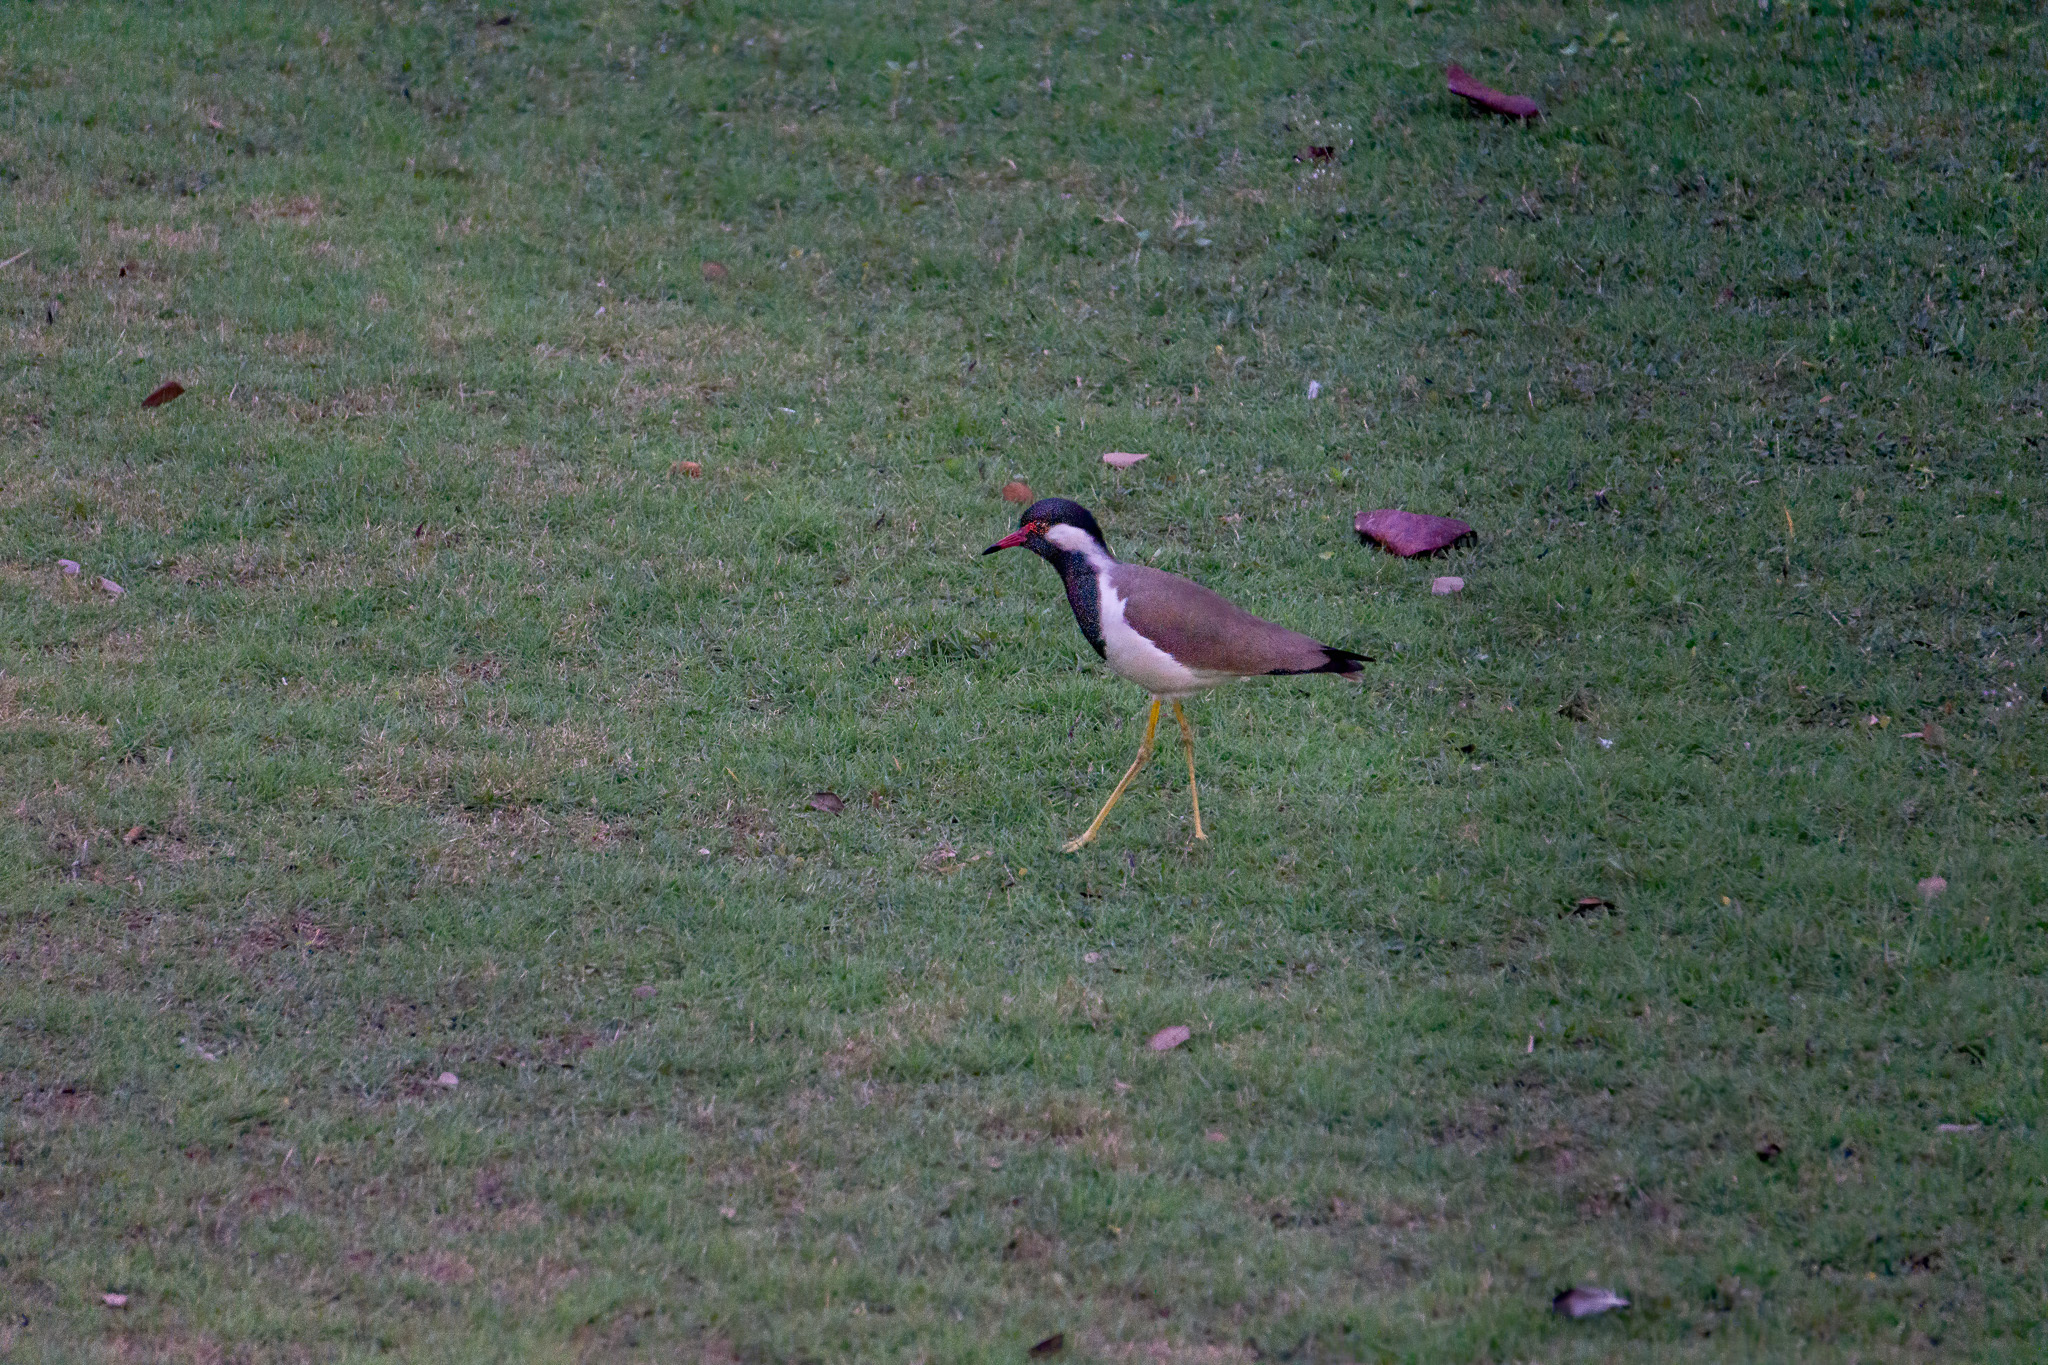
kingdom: Animalia
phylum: Chordata
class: Aves
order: Charadriiformes
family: Charadriidae
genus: Vanellus
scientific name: Vanellus indicus
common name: Red-wattled lapwing
